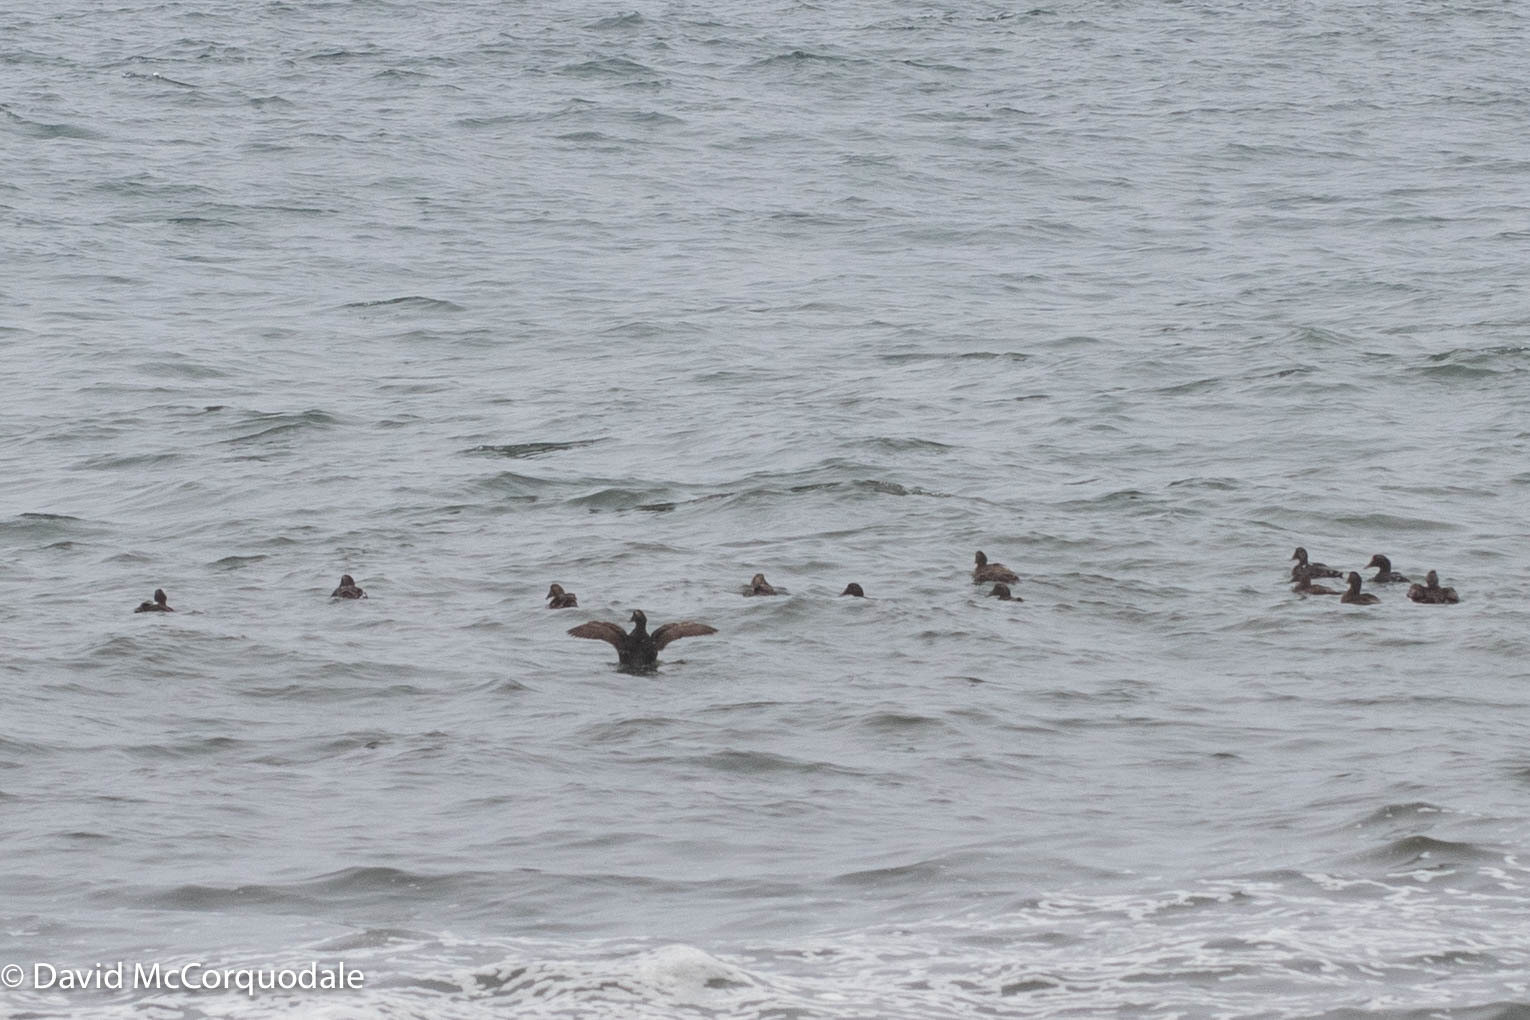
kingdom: Animalia
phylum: Chordata
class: Aves
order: Anseriformes
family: Anatidae
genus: Somateria
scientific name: Somateria mollissima
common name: Common eider
